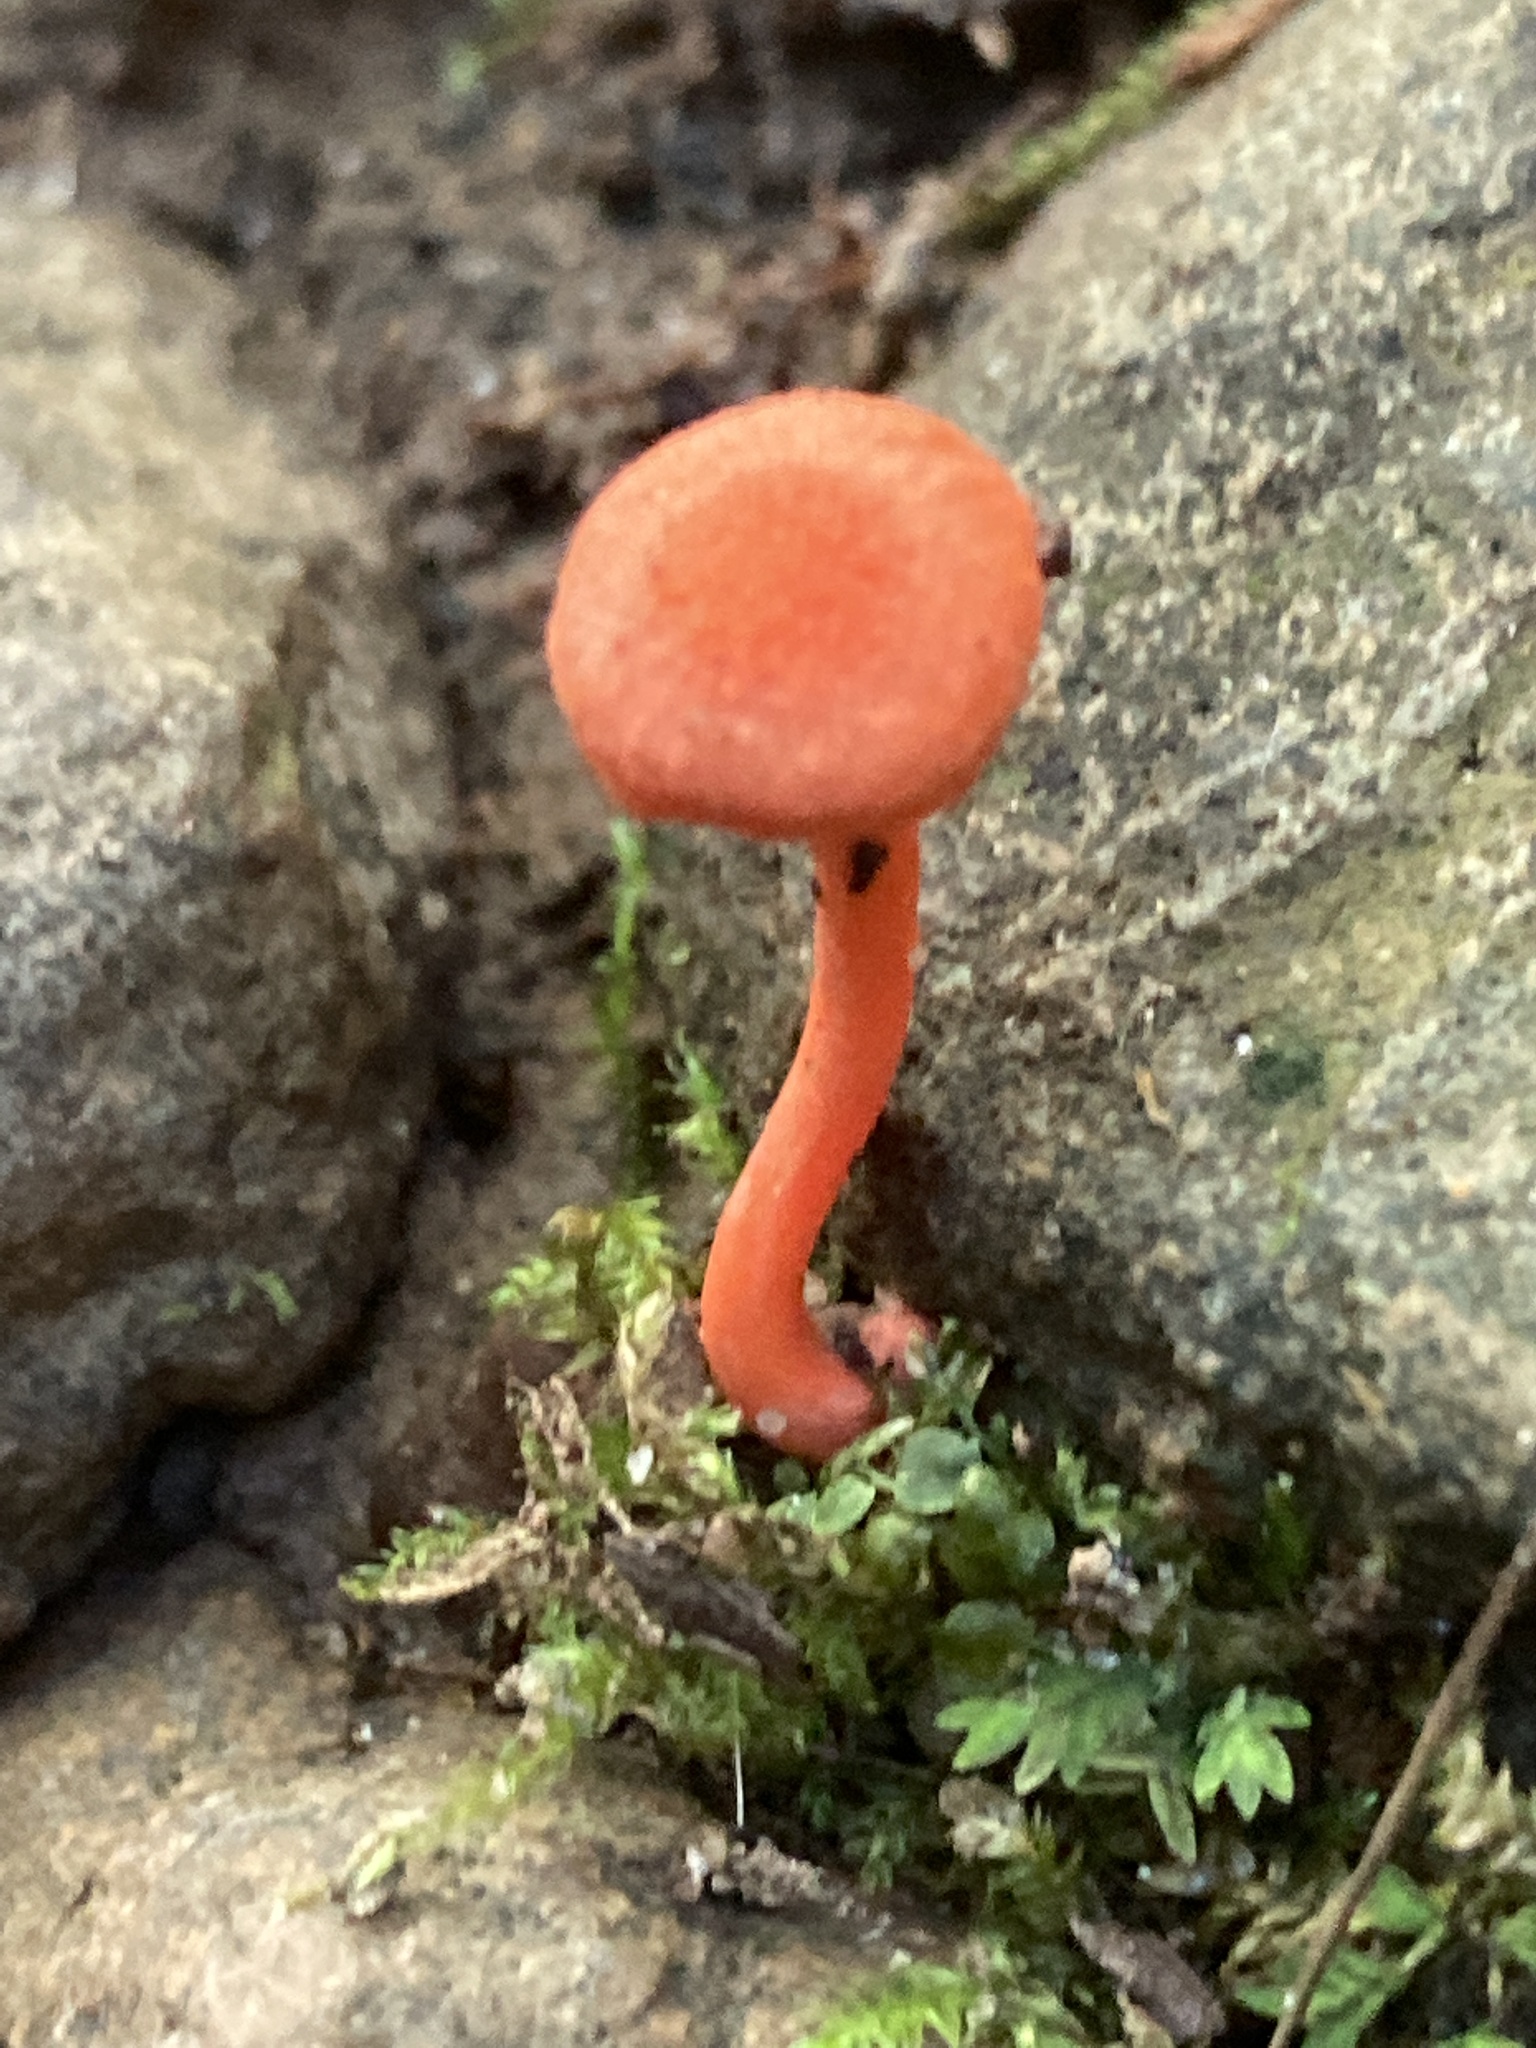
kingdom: Fungi
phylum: Basidiomycota
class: Agaricomycetes
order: Cantharellales
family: Hydnaceae
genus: Cantharellus
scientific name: Cantharellus cinnabarinus
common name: Cinnabar chanterelle
